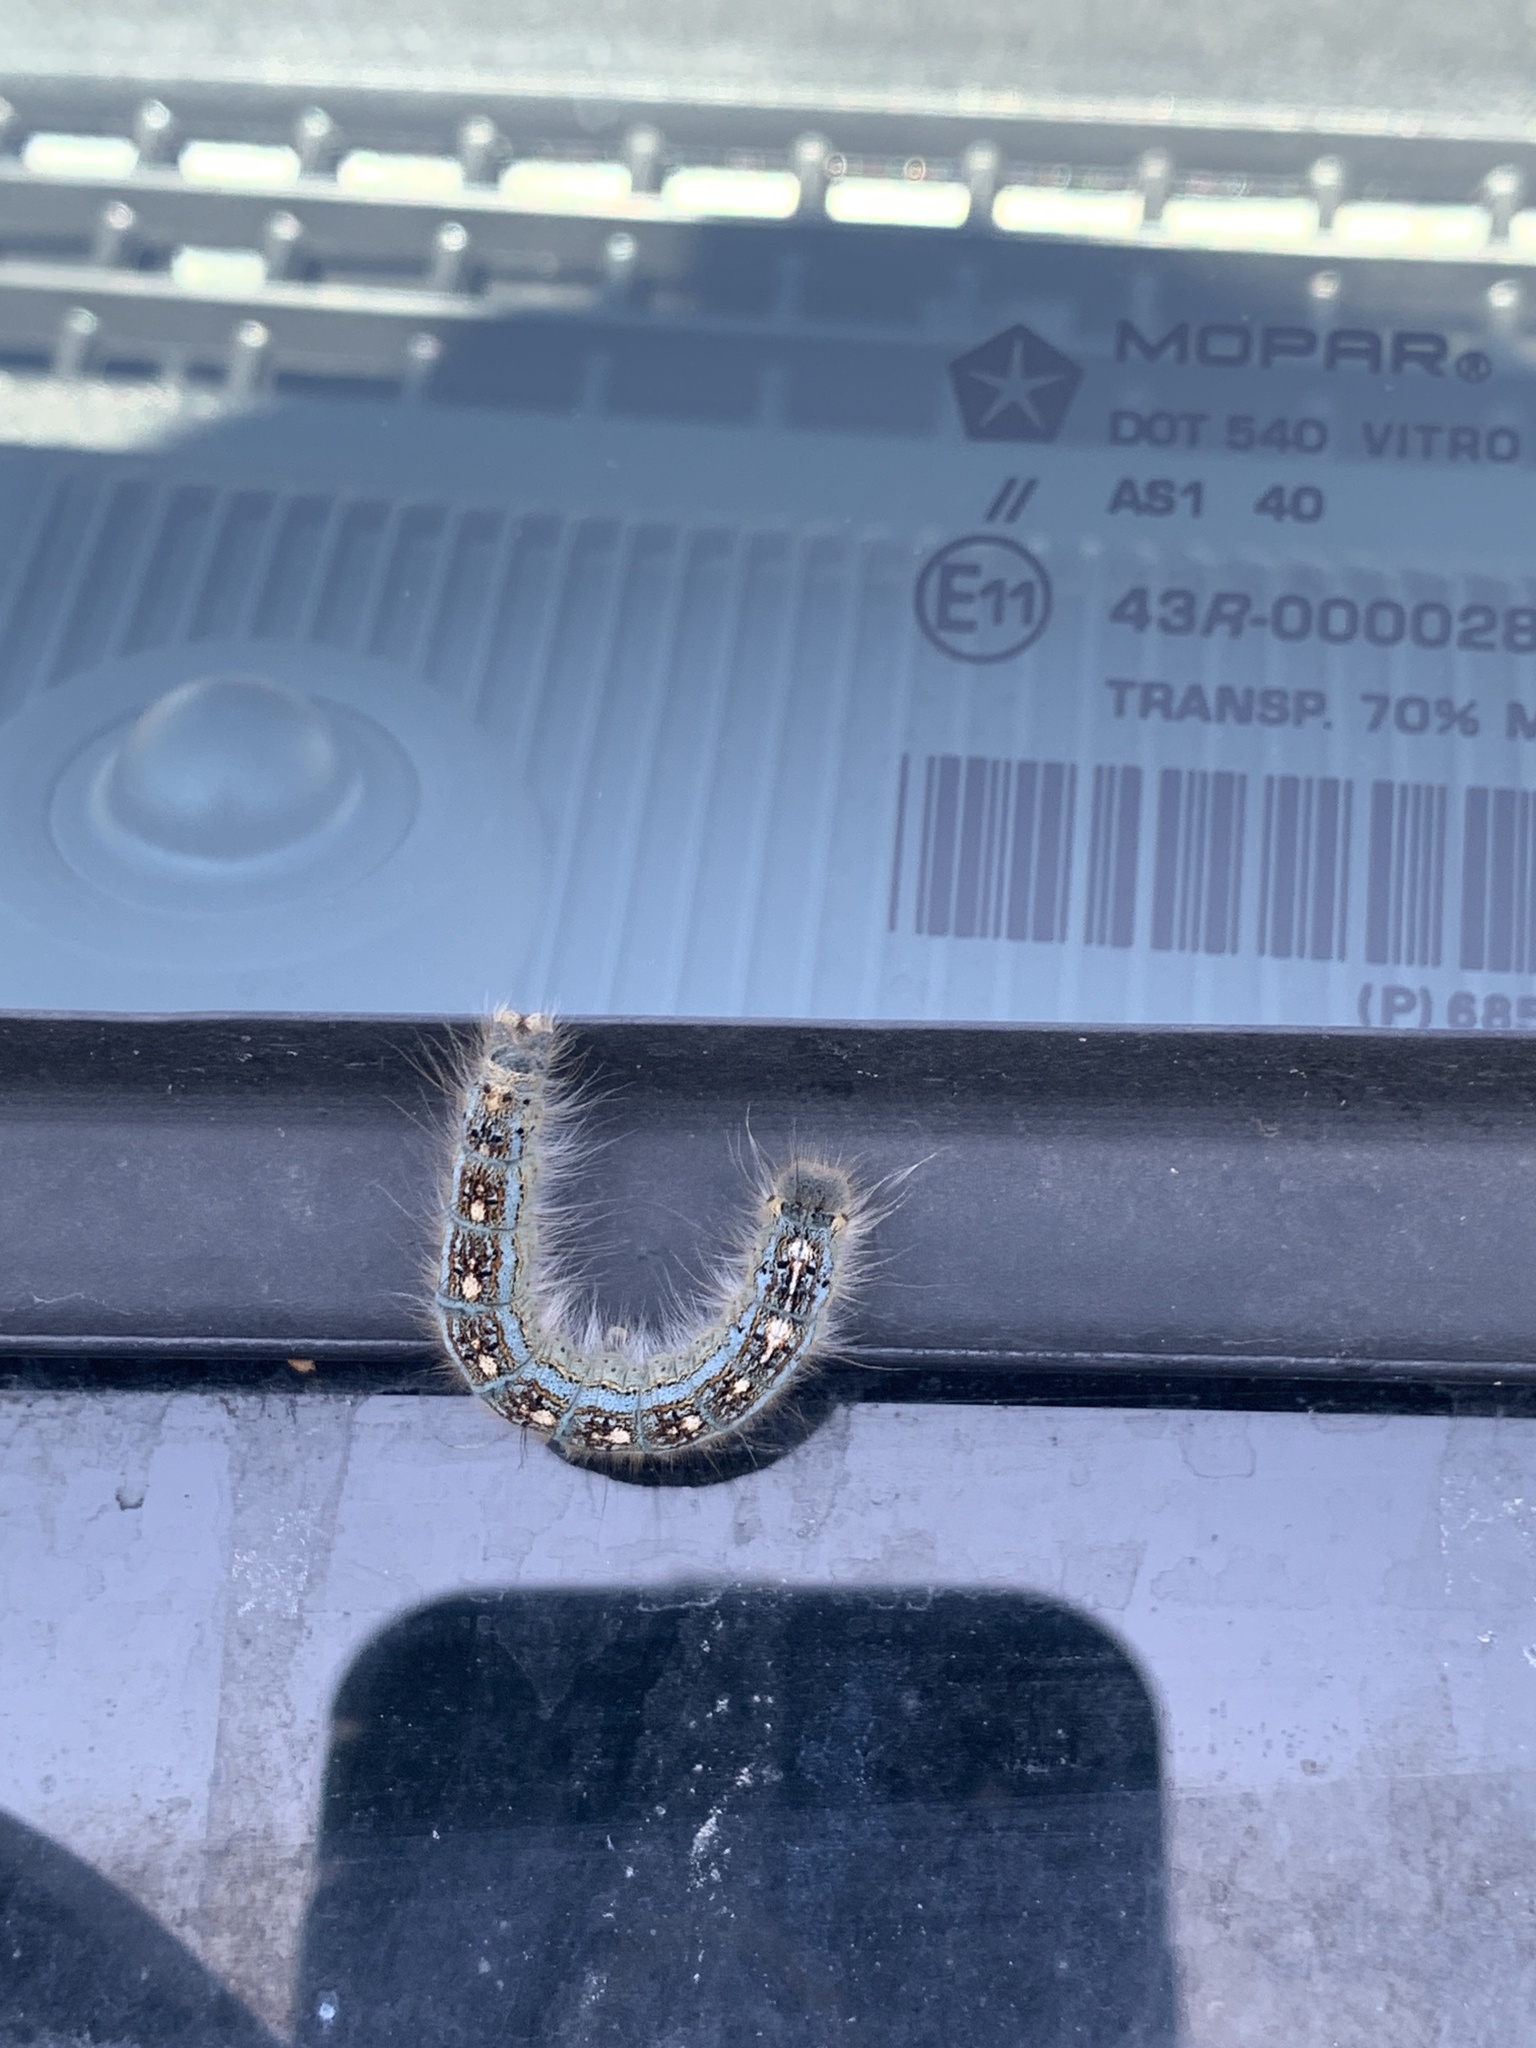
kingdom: Animalia
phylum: Arthropoda
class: Insecta
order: Lepidoptera
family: Lasiocampidae
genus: Malacosoma
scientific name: Malacosoma disstria
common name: Forest tent caterpillar
